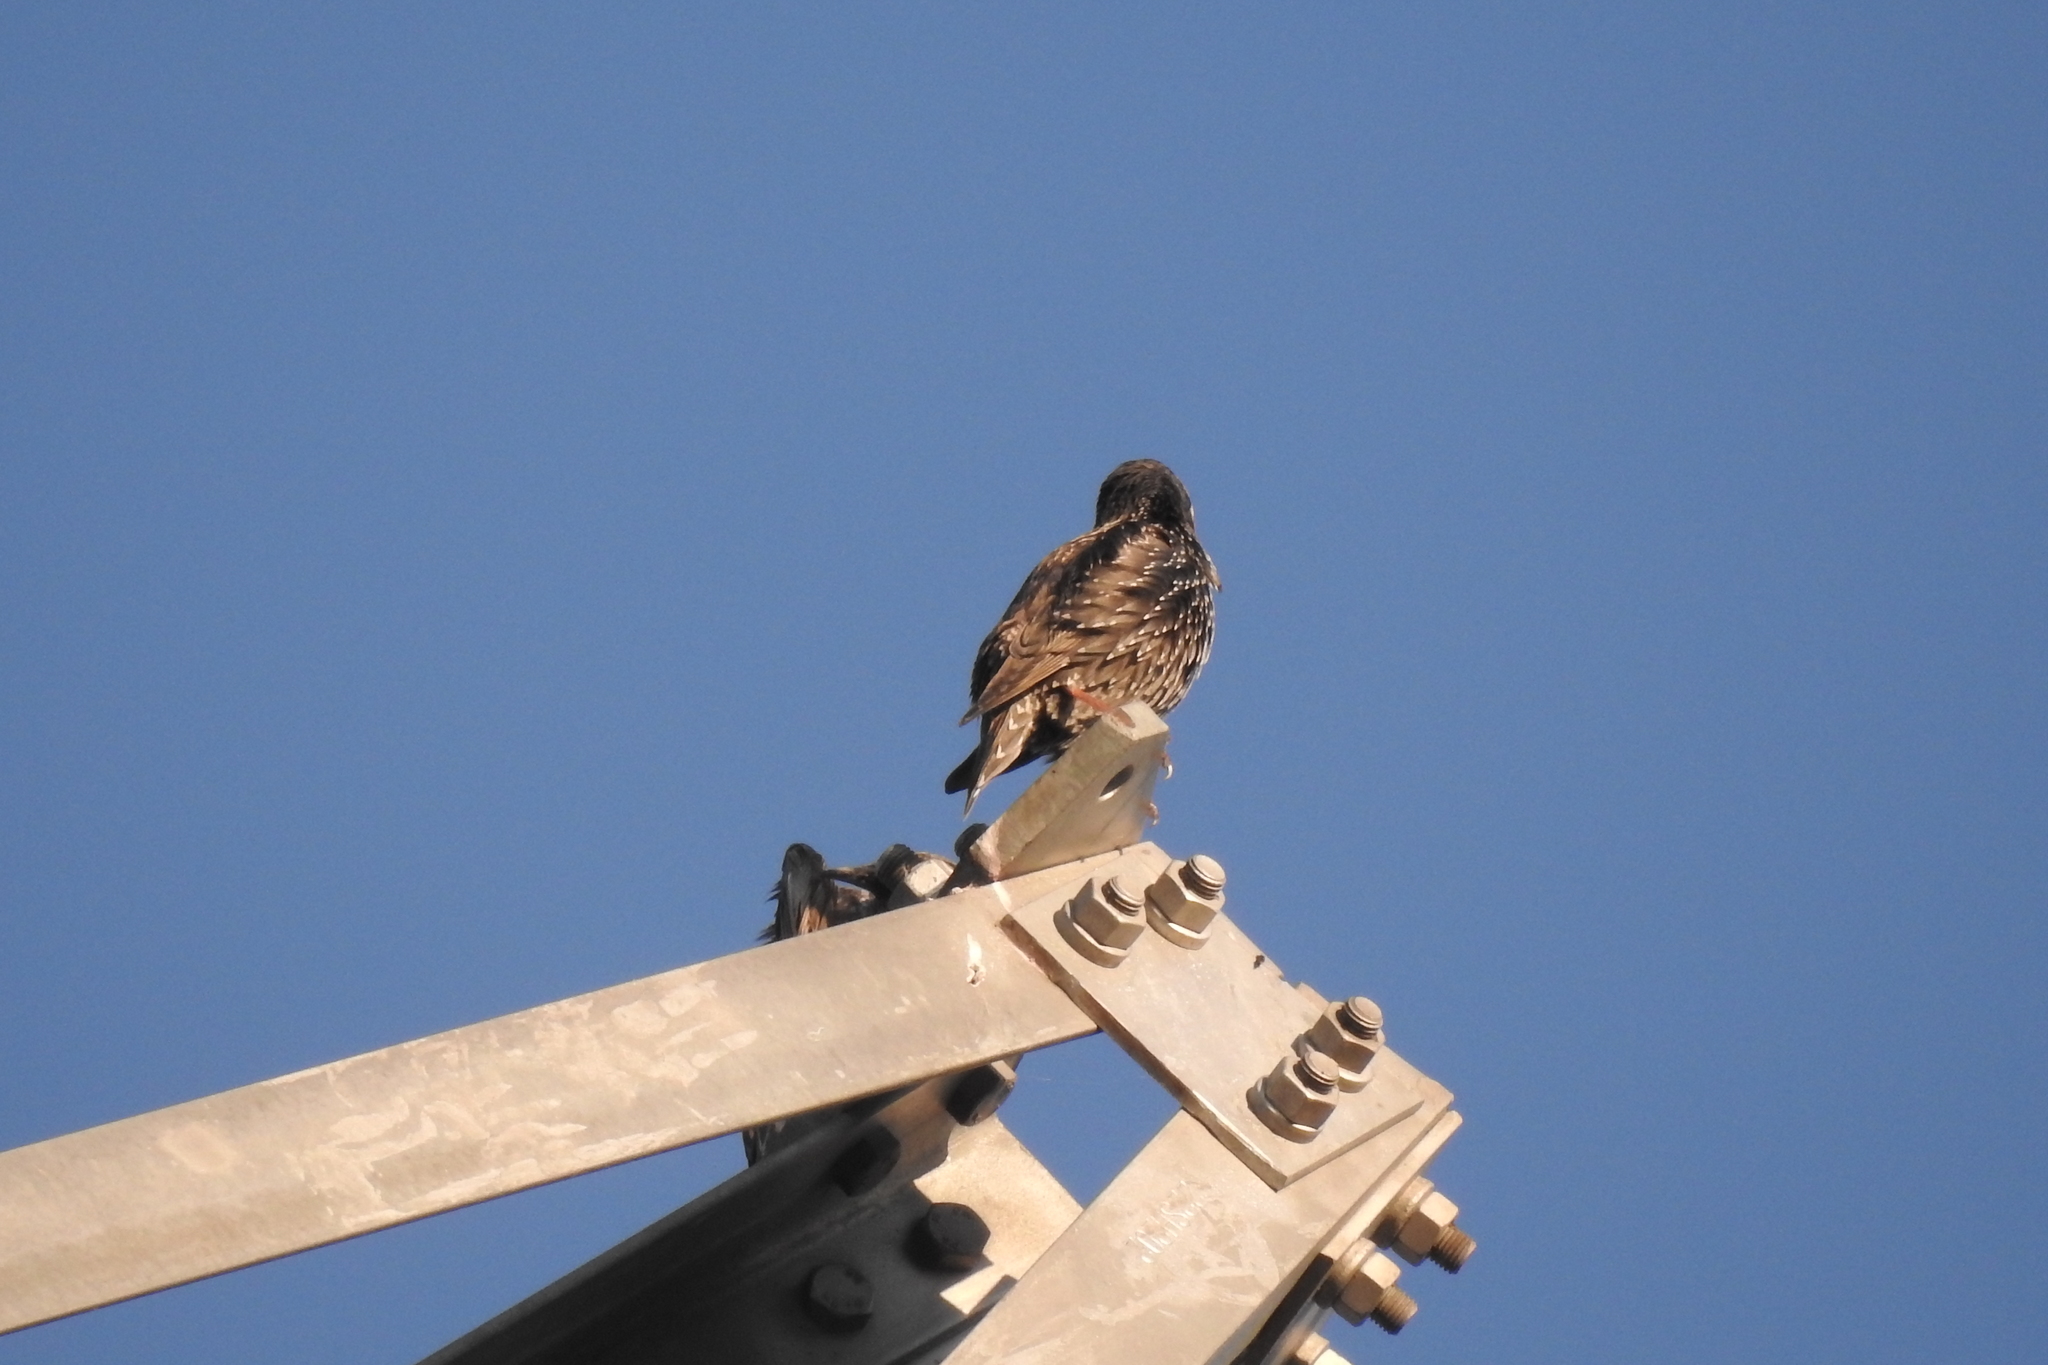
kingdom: Animalia
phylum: Chordata
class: Aves
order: Passeriformes
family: Sturnidae
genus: Sturnus
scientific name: Sturnus unicolor
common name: Spotless starling
